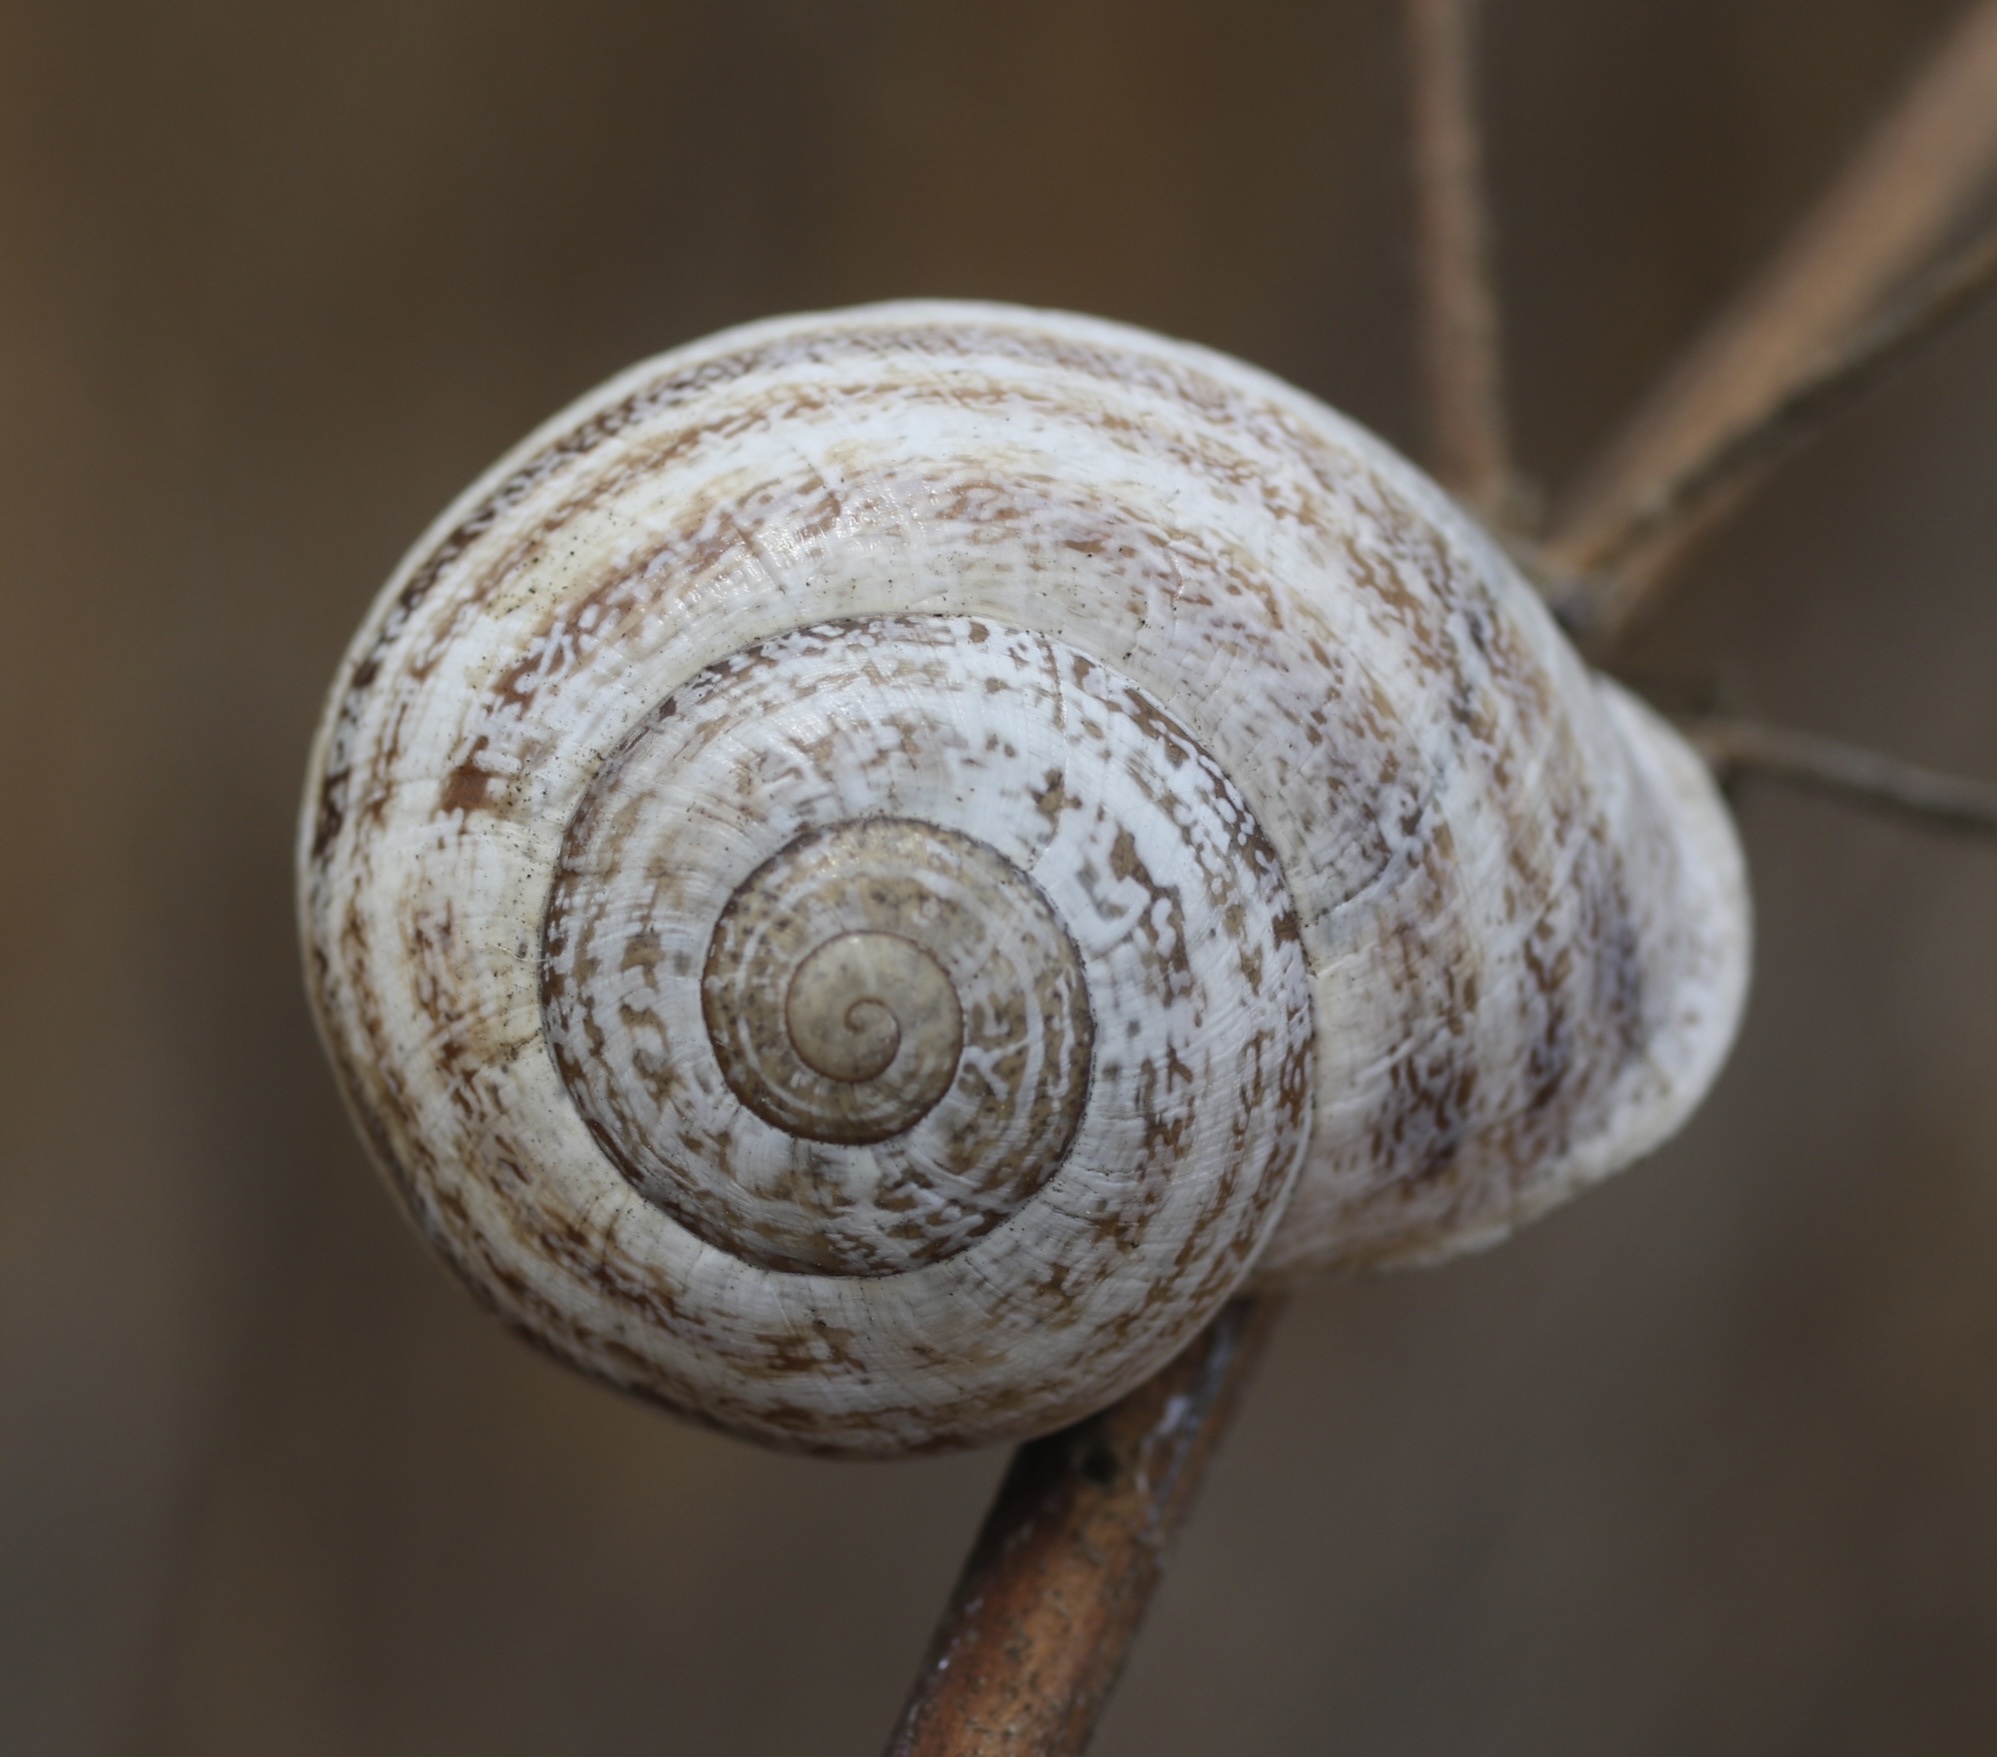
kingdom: Animalia
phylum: Mollusca
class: Gastropoda
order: Stylommatophora
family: Helicidae
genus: Otala
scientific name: Otala lactea
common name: Milk snail
